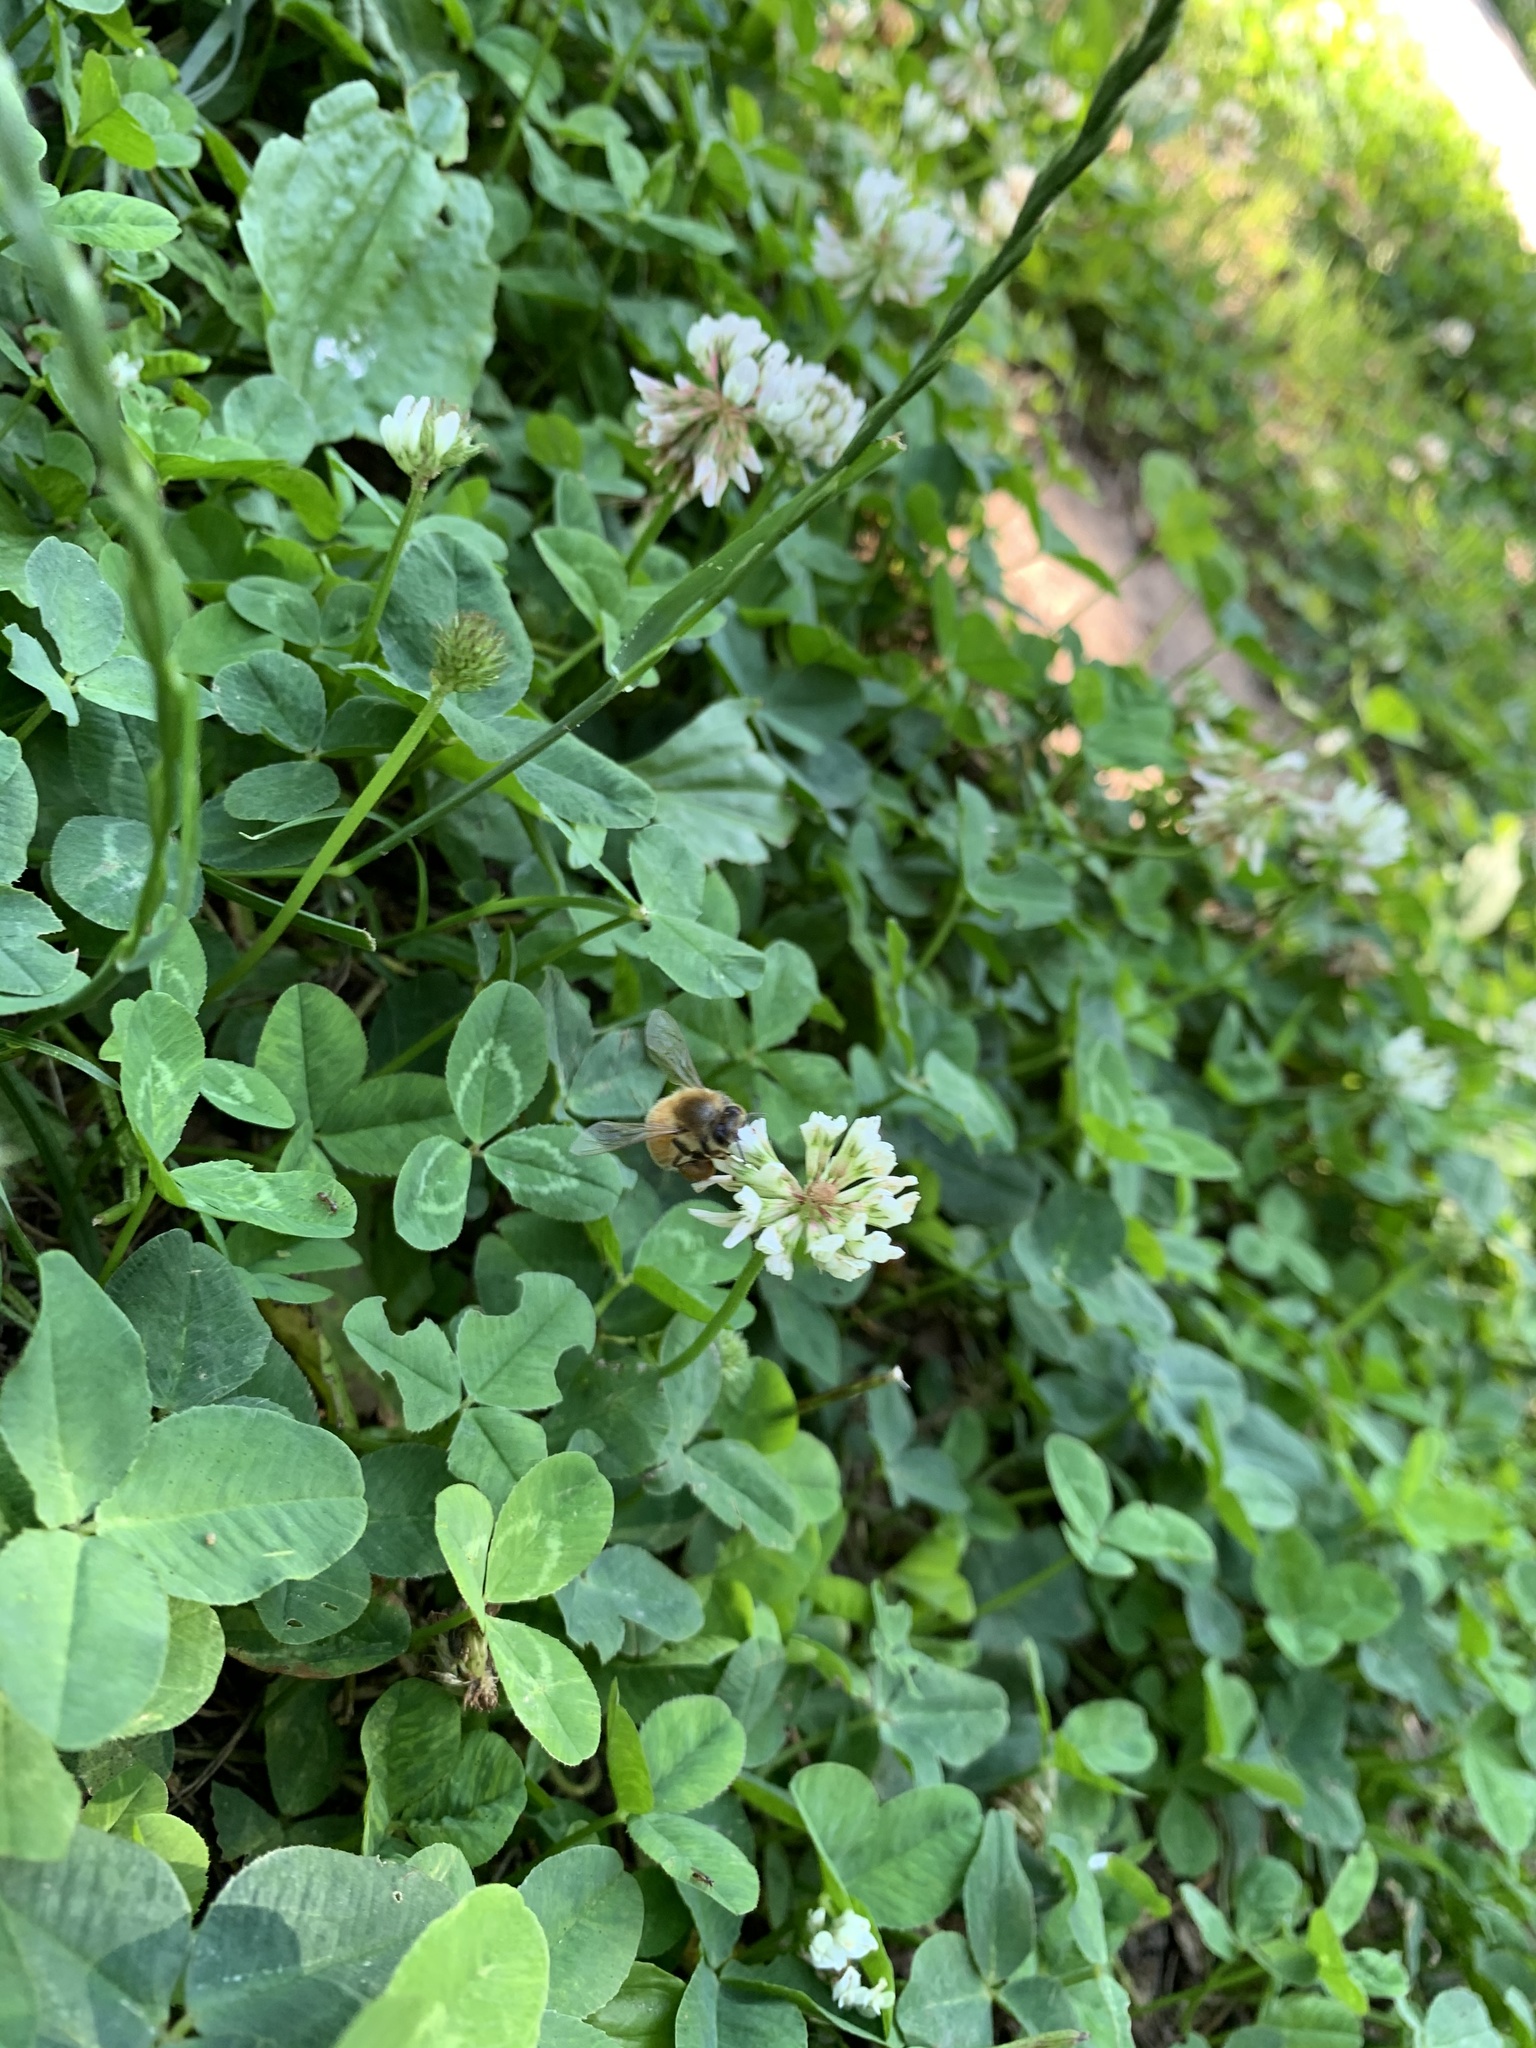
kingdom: Animalia
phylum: Arthropoda
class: Insecta
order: Hymenoptera
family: Apidae
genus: Apis
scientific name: Apis mellifera
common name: Honey bee
